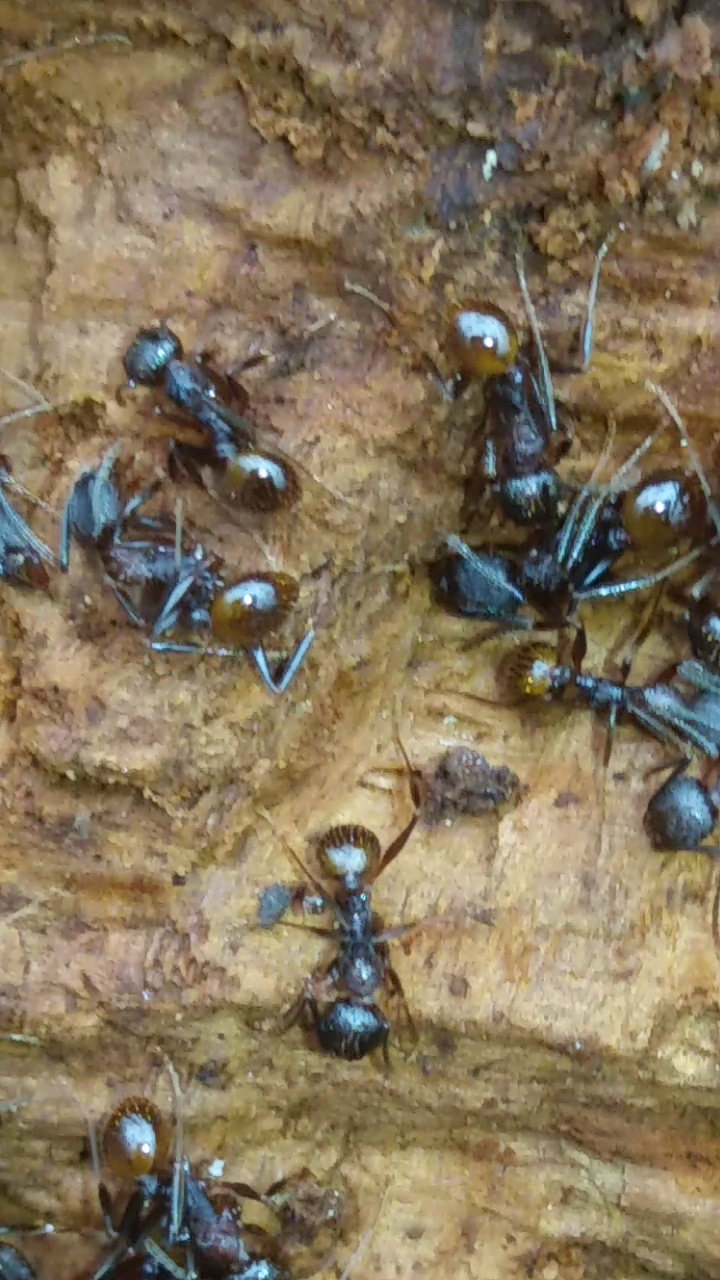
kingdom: Animalia
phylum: Arthropoda
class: Insecta
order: Hymenoptera
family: Formicidae
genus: Aphaenogaster
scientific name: Aphaenogaster fulva
